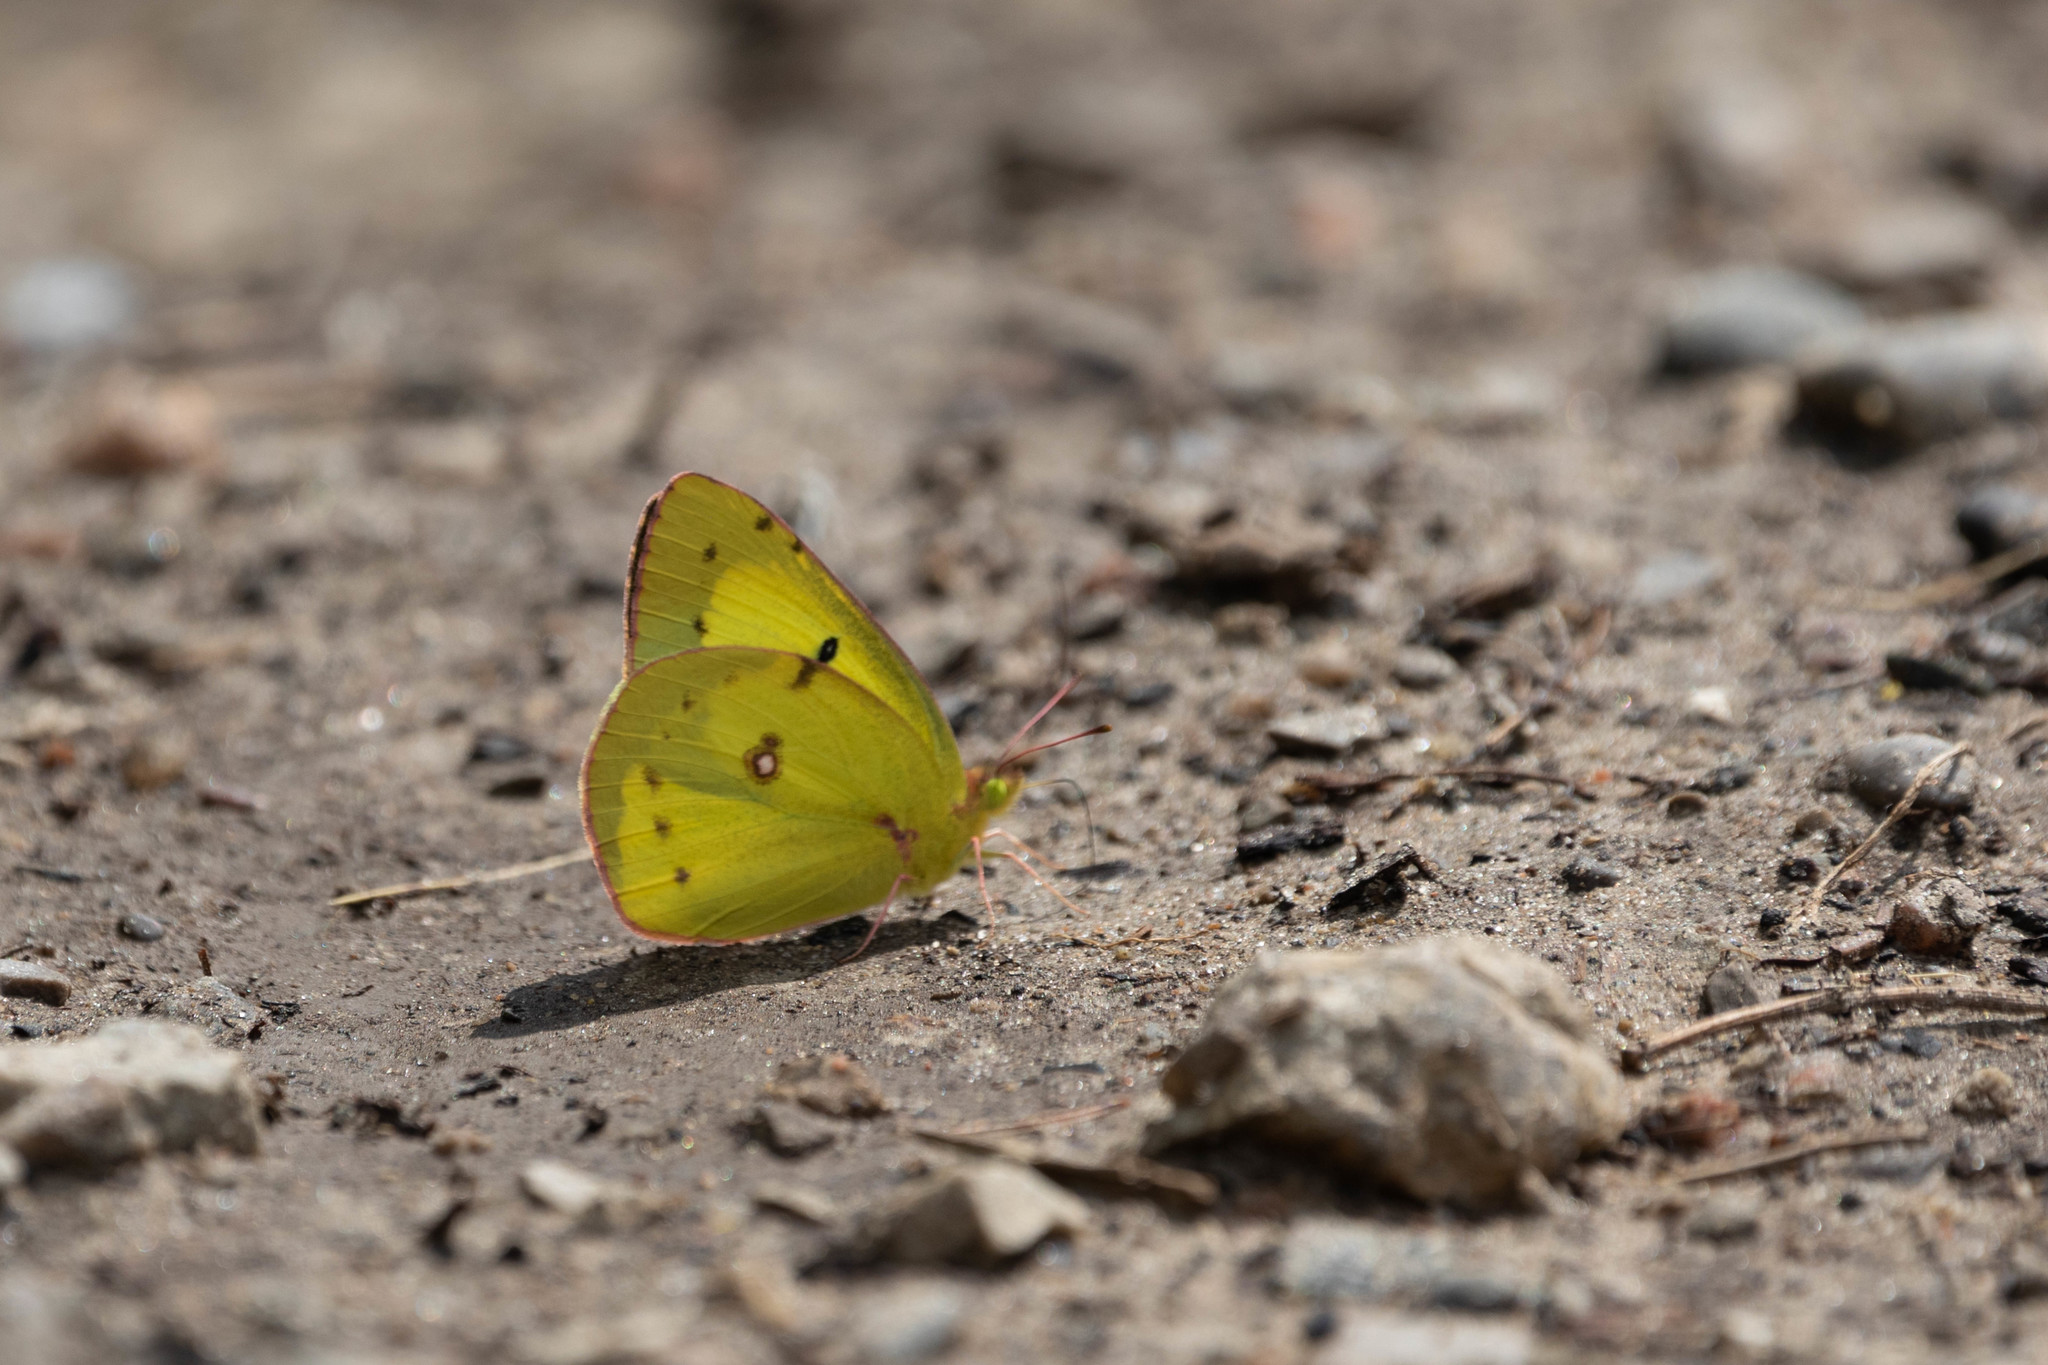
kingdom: Animalia
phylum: Arthropoda
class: Insecta
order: Lepidoptera
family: Pieridae
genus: Colias
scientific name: Colias philodice
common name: Clouded sulphur
